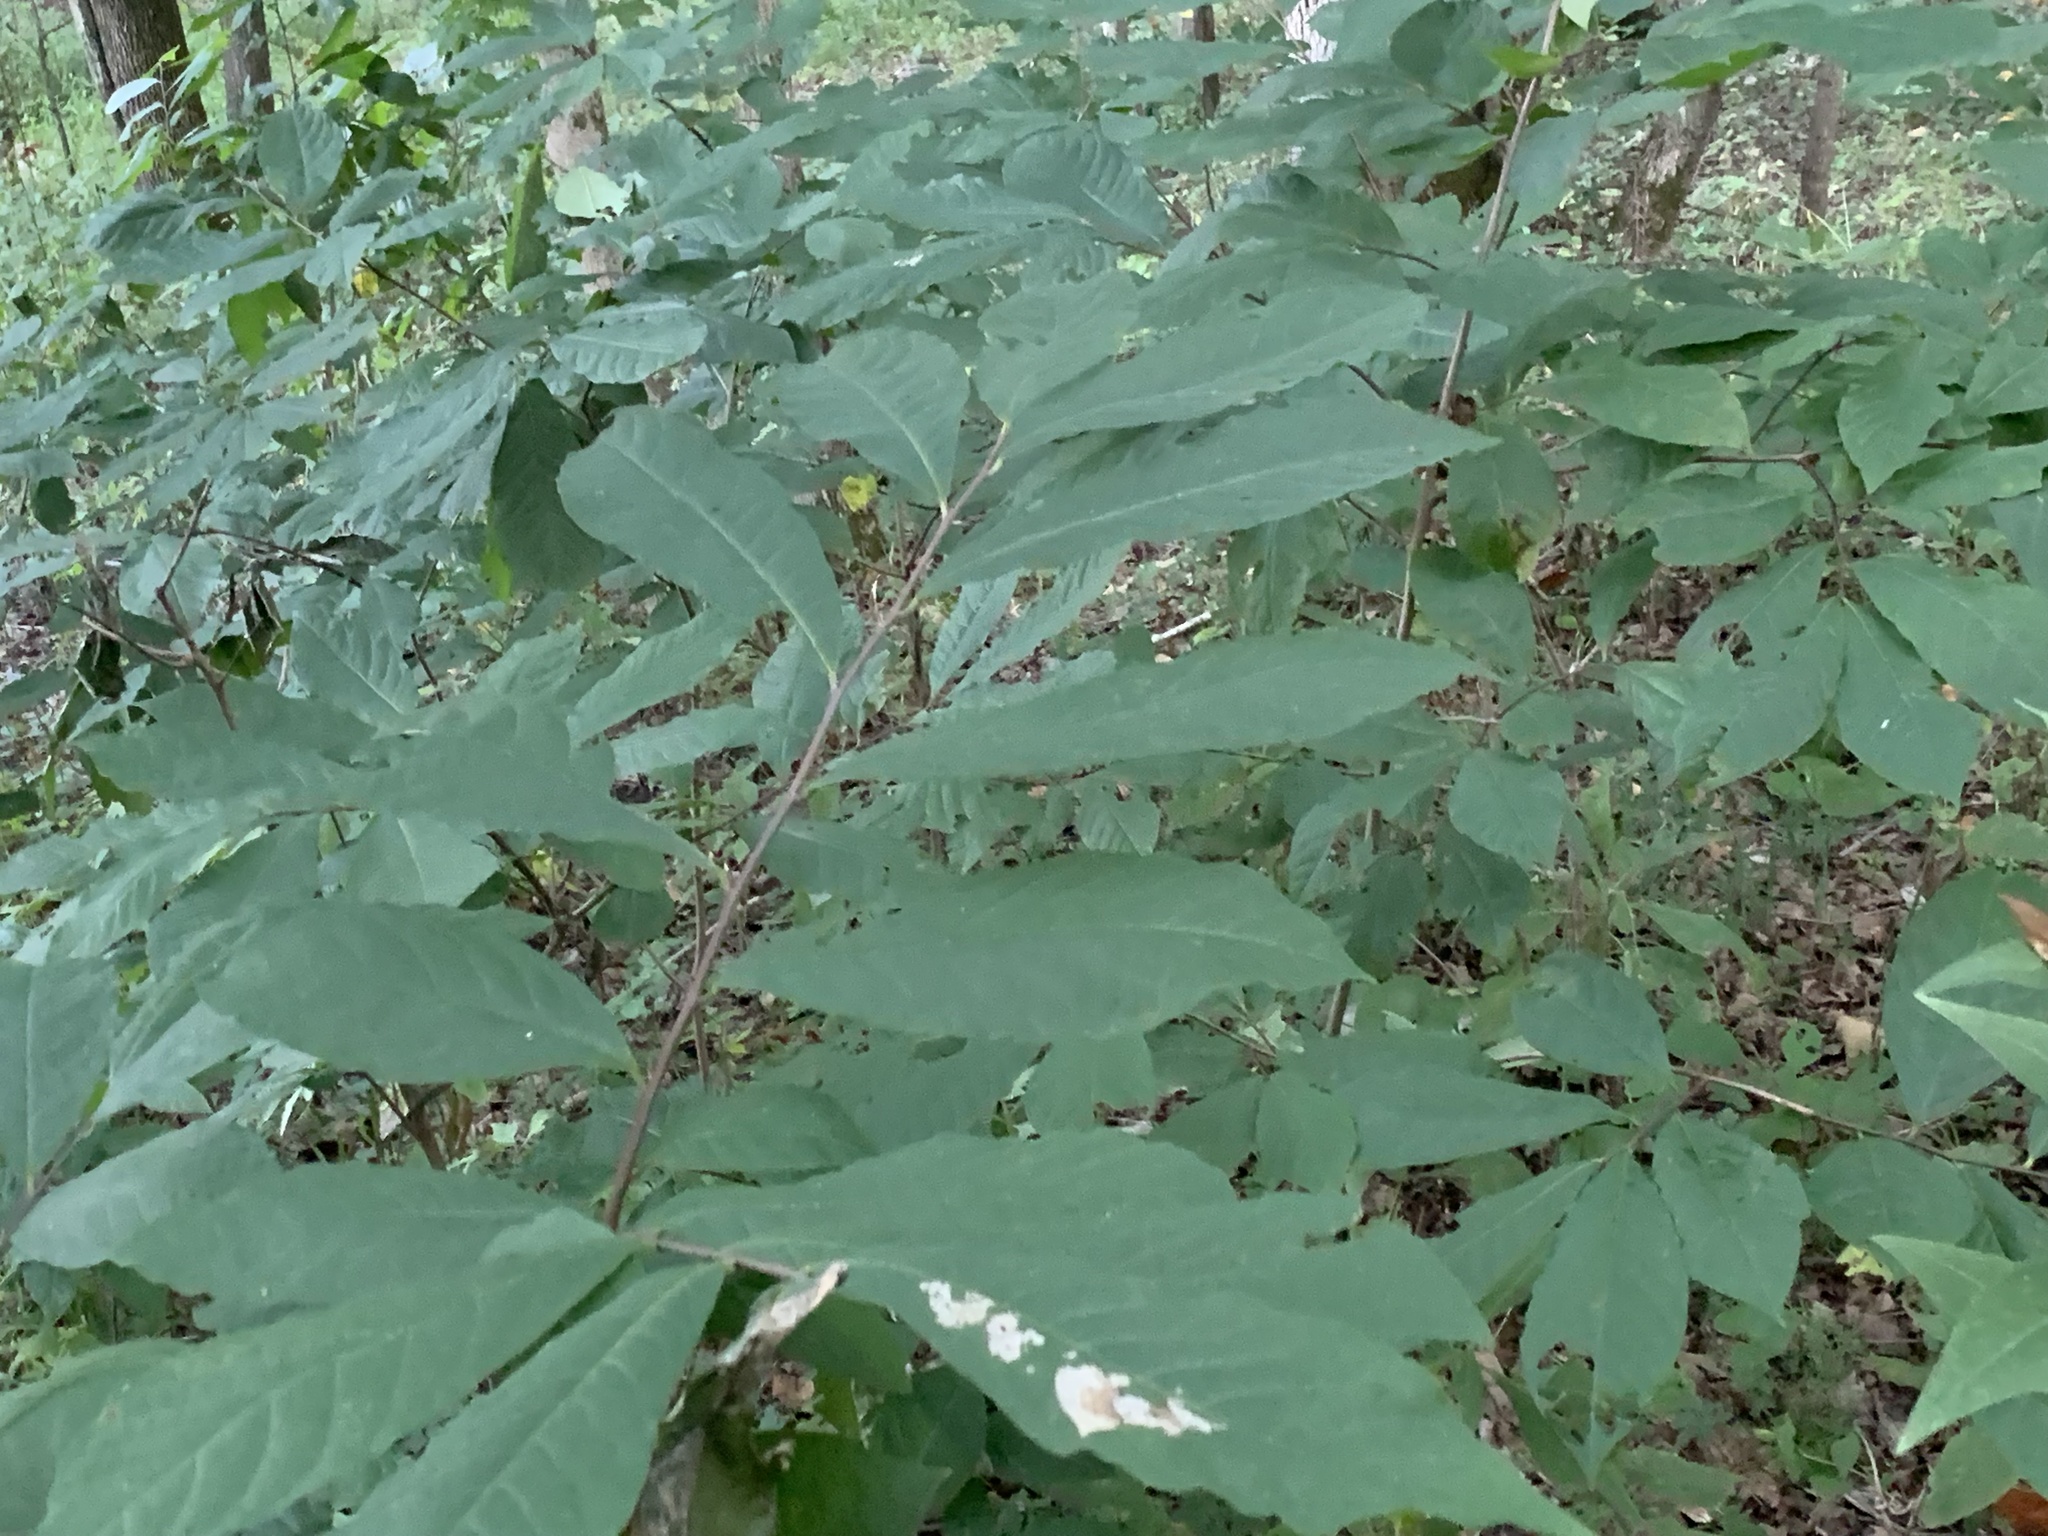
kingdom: Plantae
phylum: Tracheophyta
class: Magnoliopsida
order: Magnoliales
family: Annonaceae
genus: Asimina
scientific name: Asimina triloba
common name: Dog-banana
